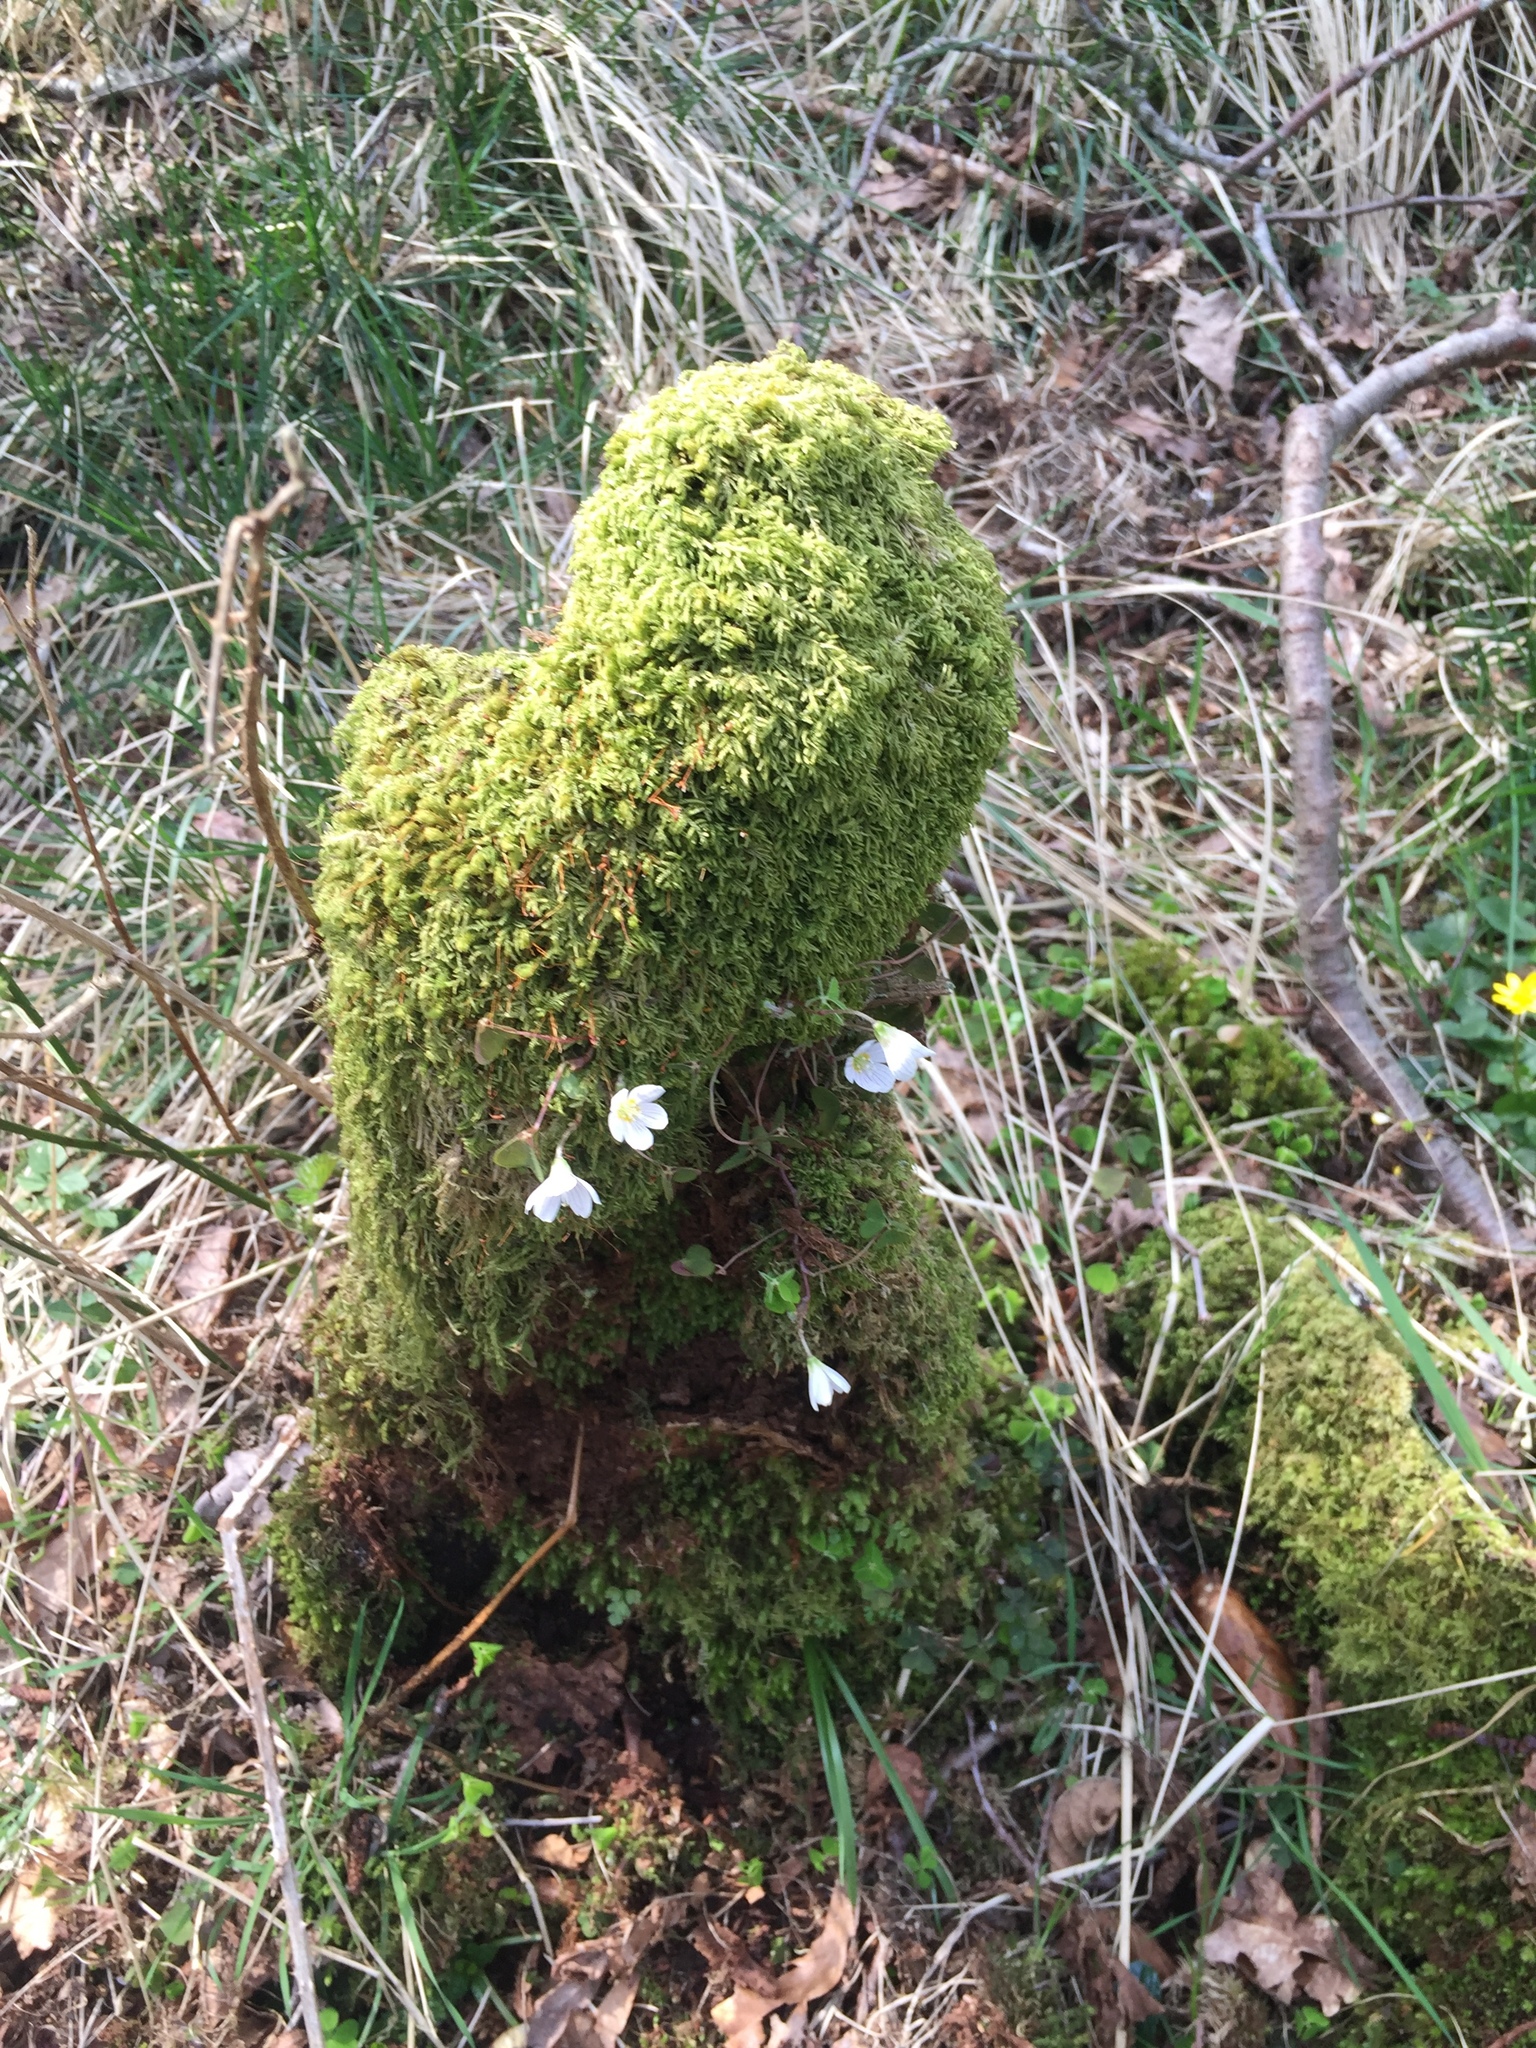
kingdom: Plantae
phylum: Tracheophyta
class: Magnoliopsida
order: Oxalidales
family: Oxalidaceae
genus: Oxalis
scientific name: Oxalis acetosella
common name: Wood-sorrel
